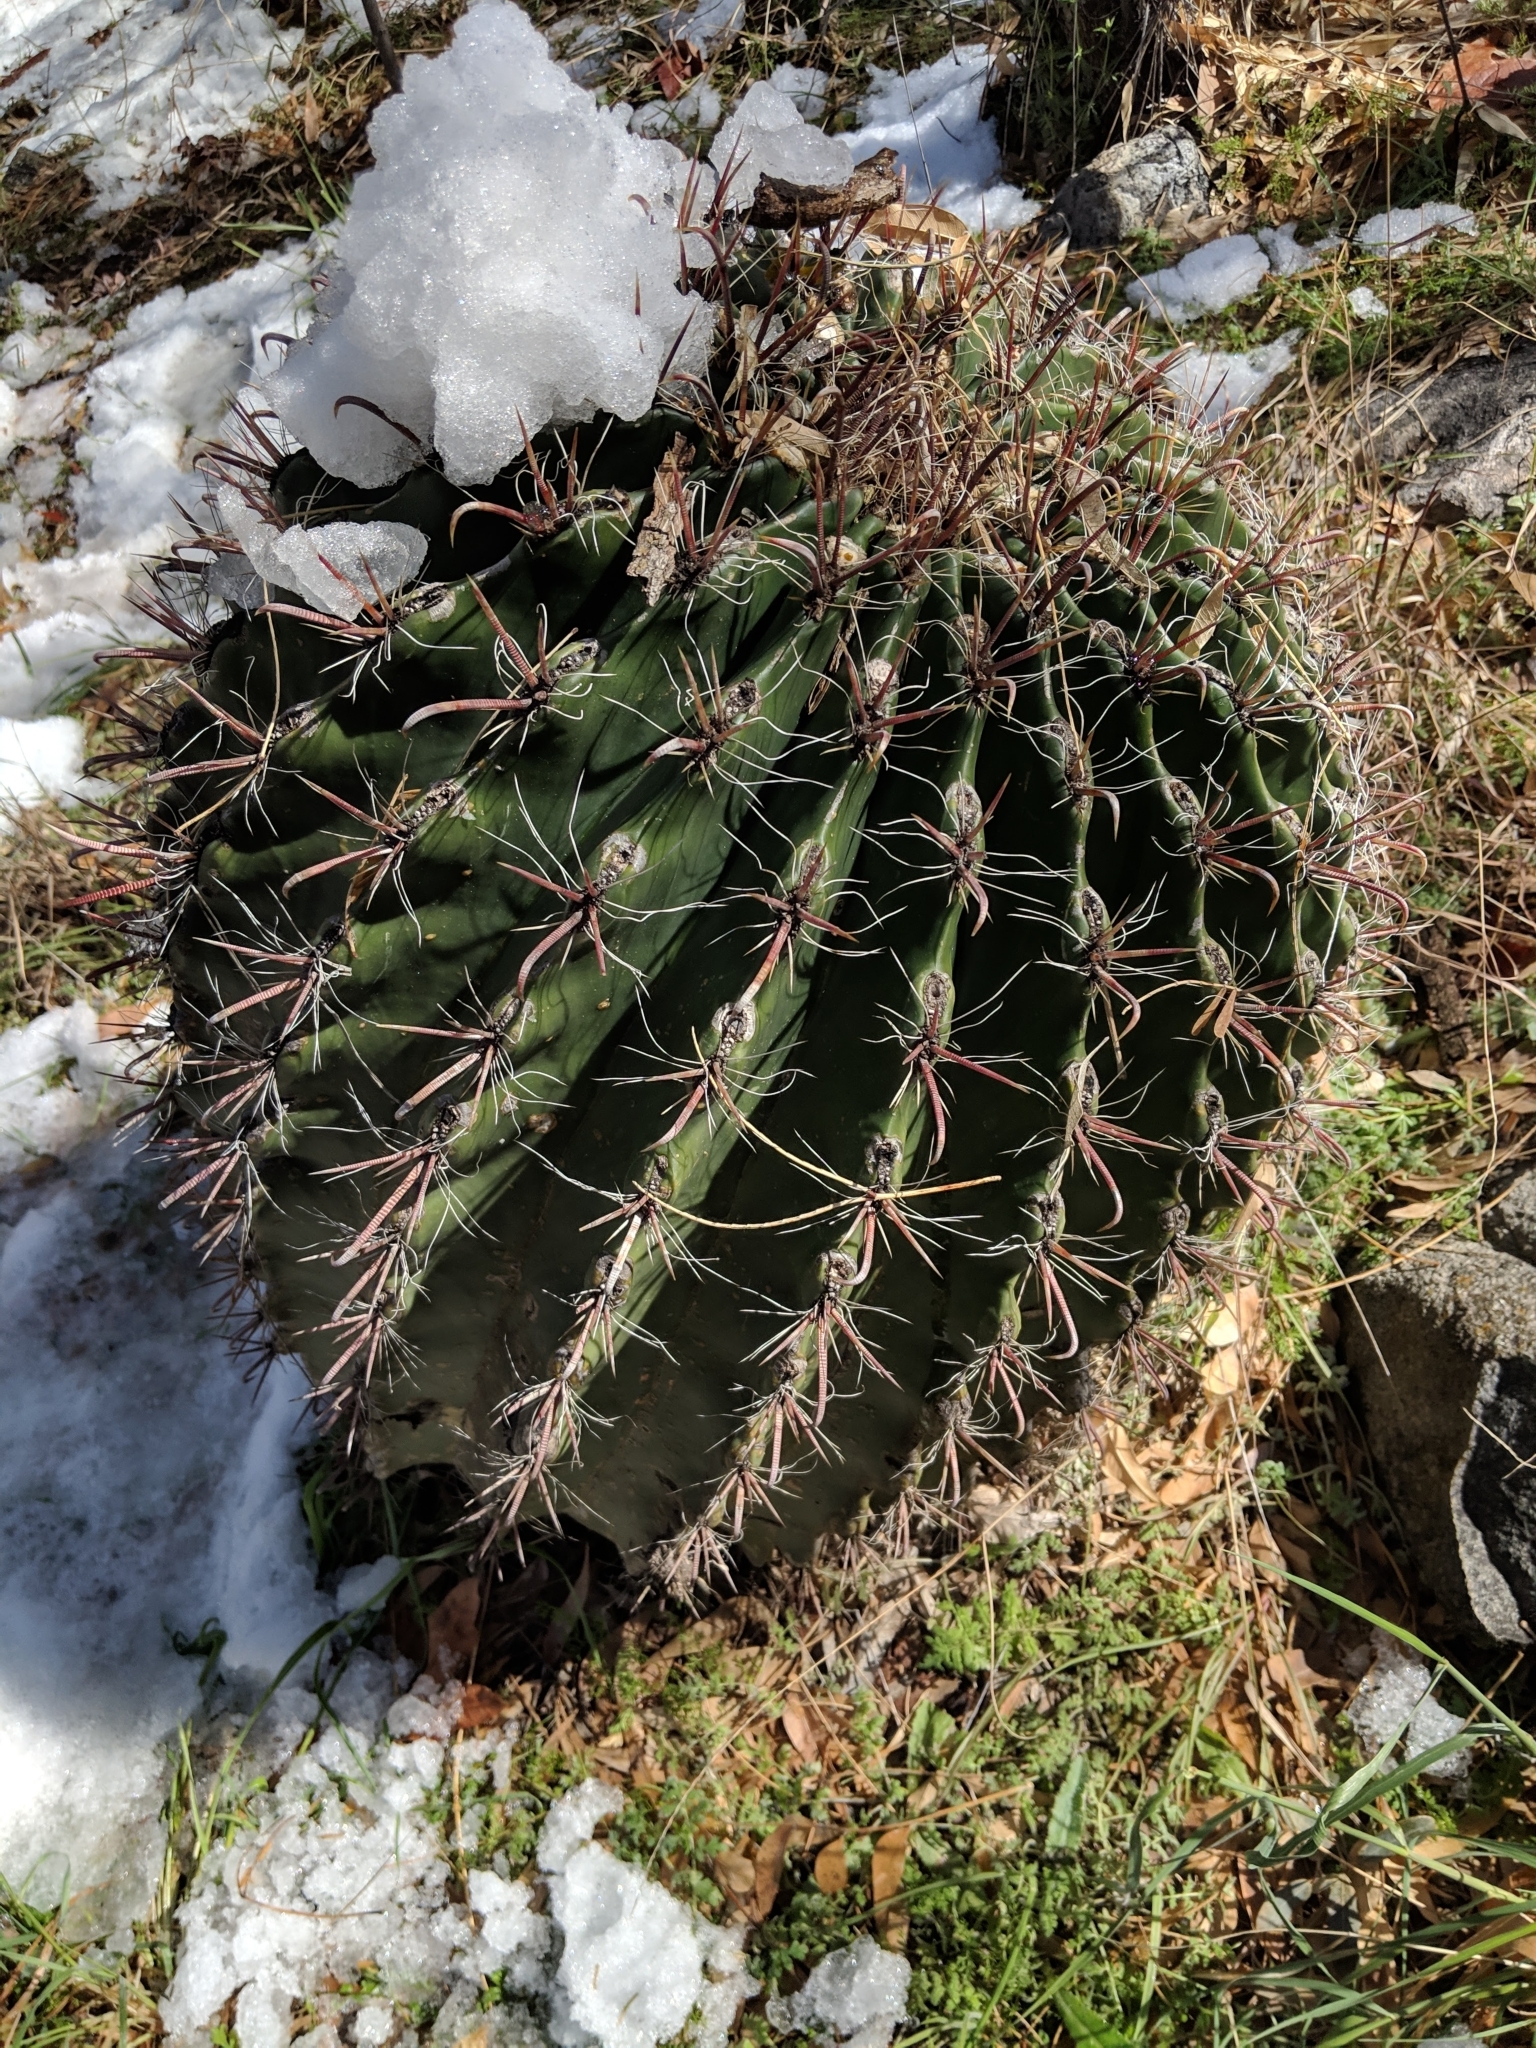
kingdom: Plantae
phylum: Tracheophyta
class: Magnoliopsida
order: Caryophyllales
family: Cactaceae
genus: Ferocactus
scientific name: Ferocactus wislizeni
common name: Candy barrel cactus
